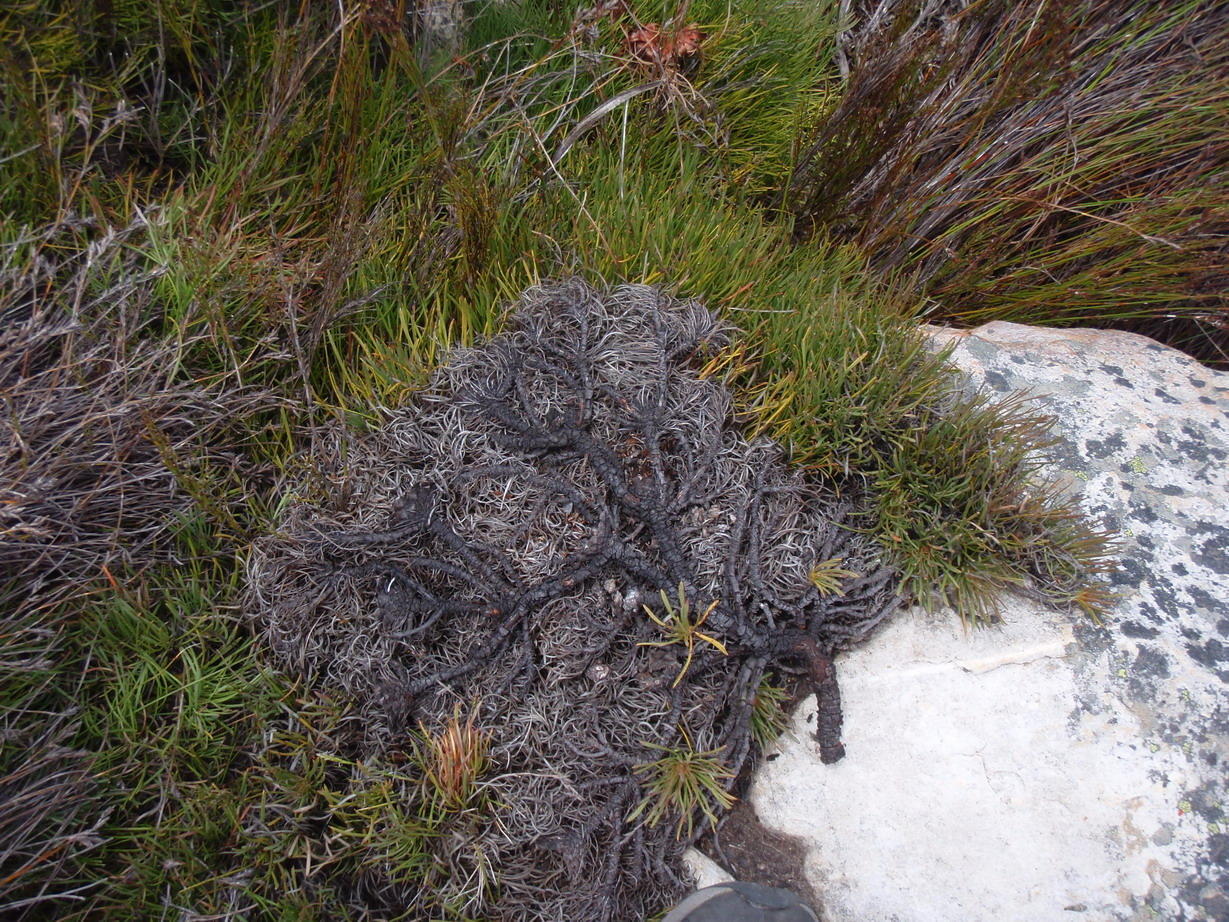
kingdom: Plantae
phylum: Tracheophyta
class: Magnoliopsida
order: Proteales
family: Proteaceae
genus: Protea
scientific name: Protea montana
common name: Swartberg sugarbush
